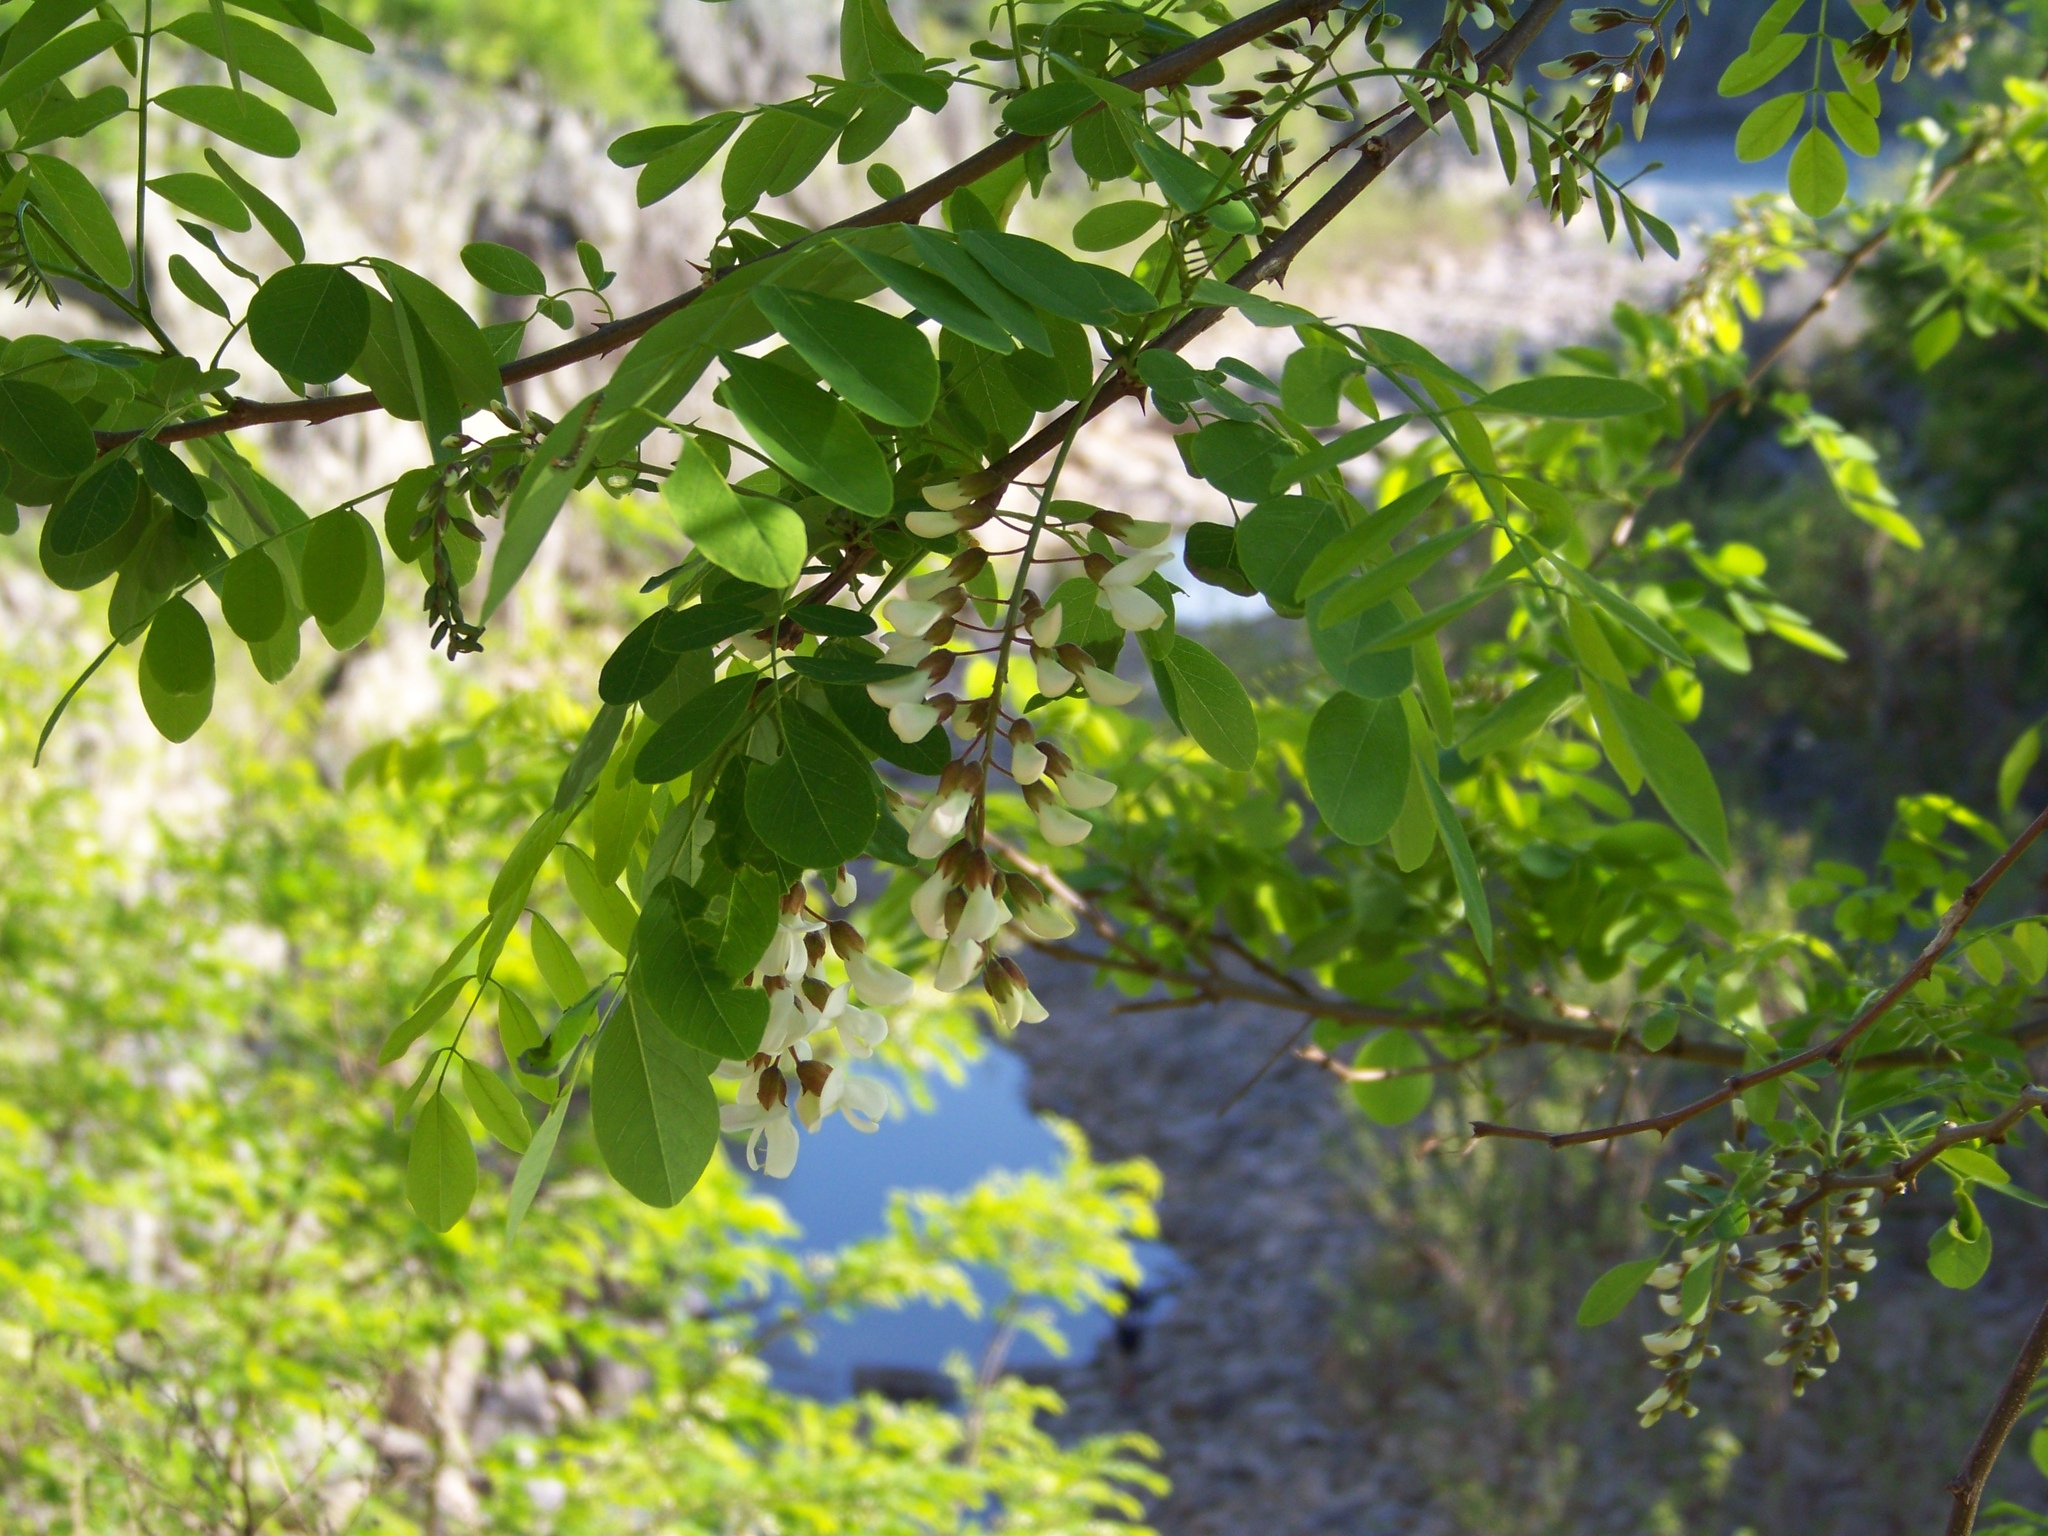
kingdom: Plantae
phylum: Tracheophyta
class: Magnoliopsida
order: Fabales
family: Fabaceae
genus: Robinia
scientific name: Robinia pseudoacacia
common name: Black locust
